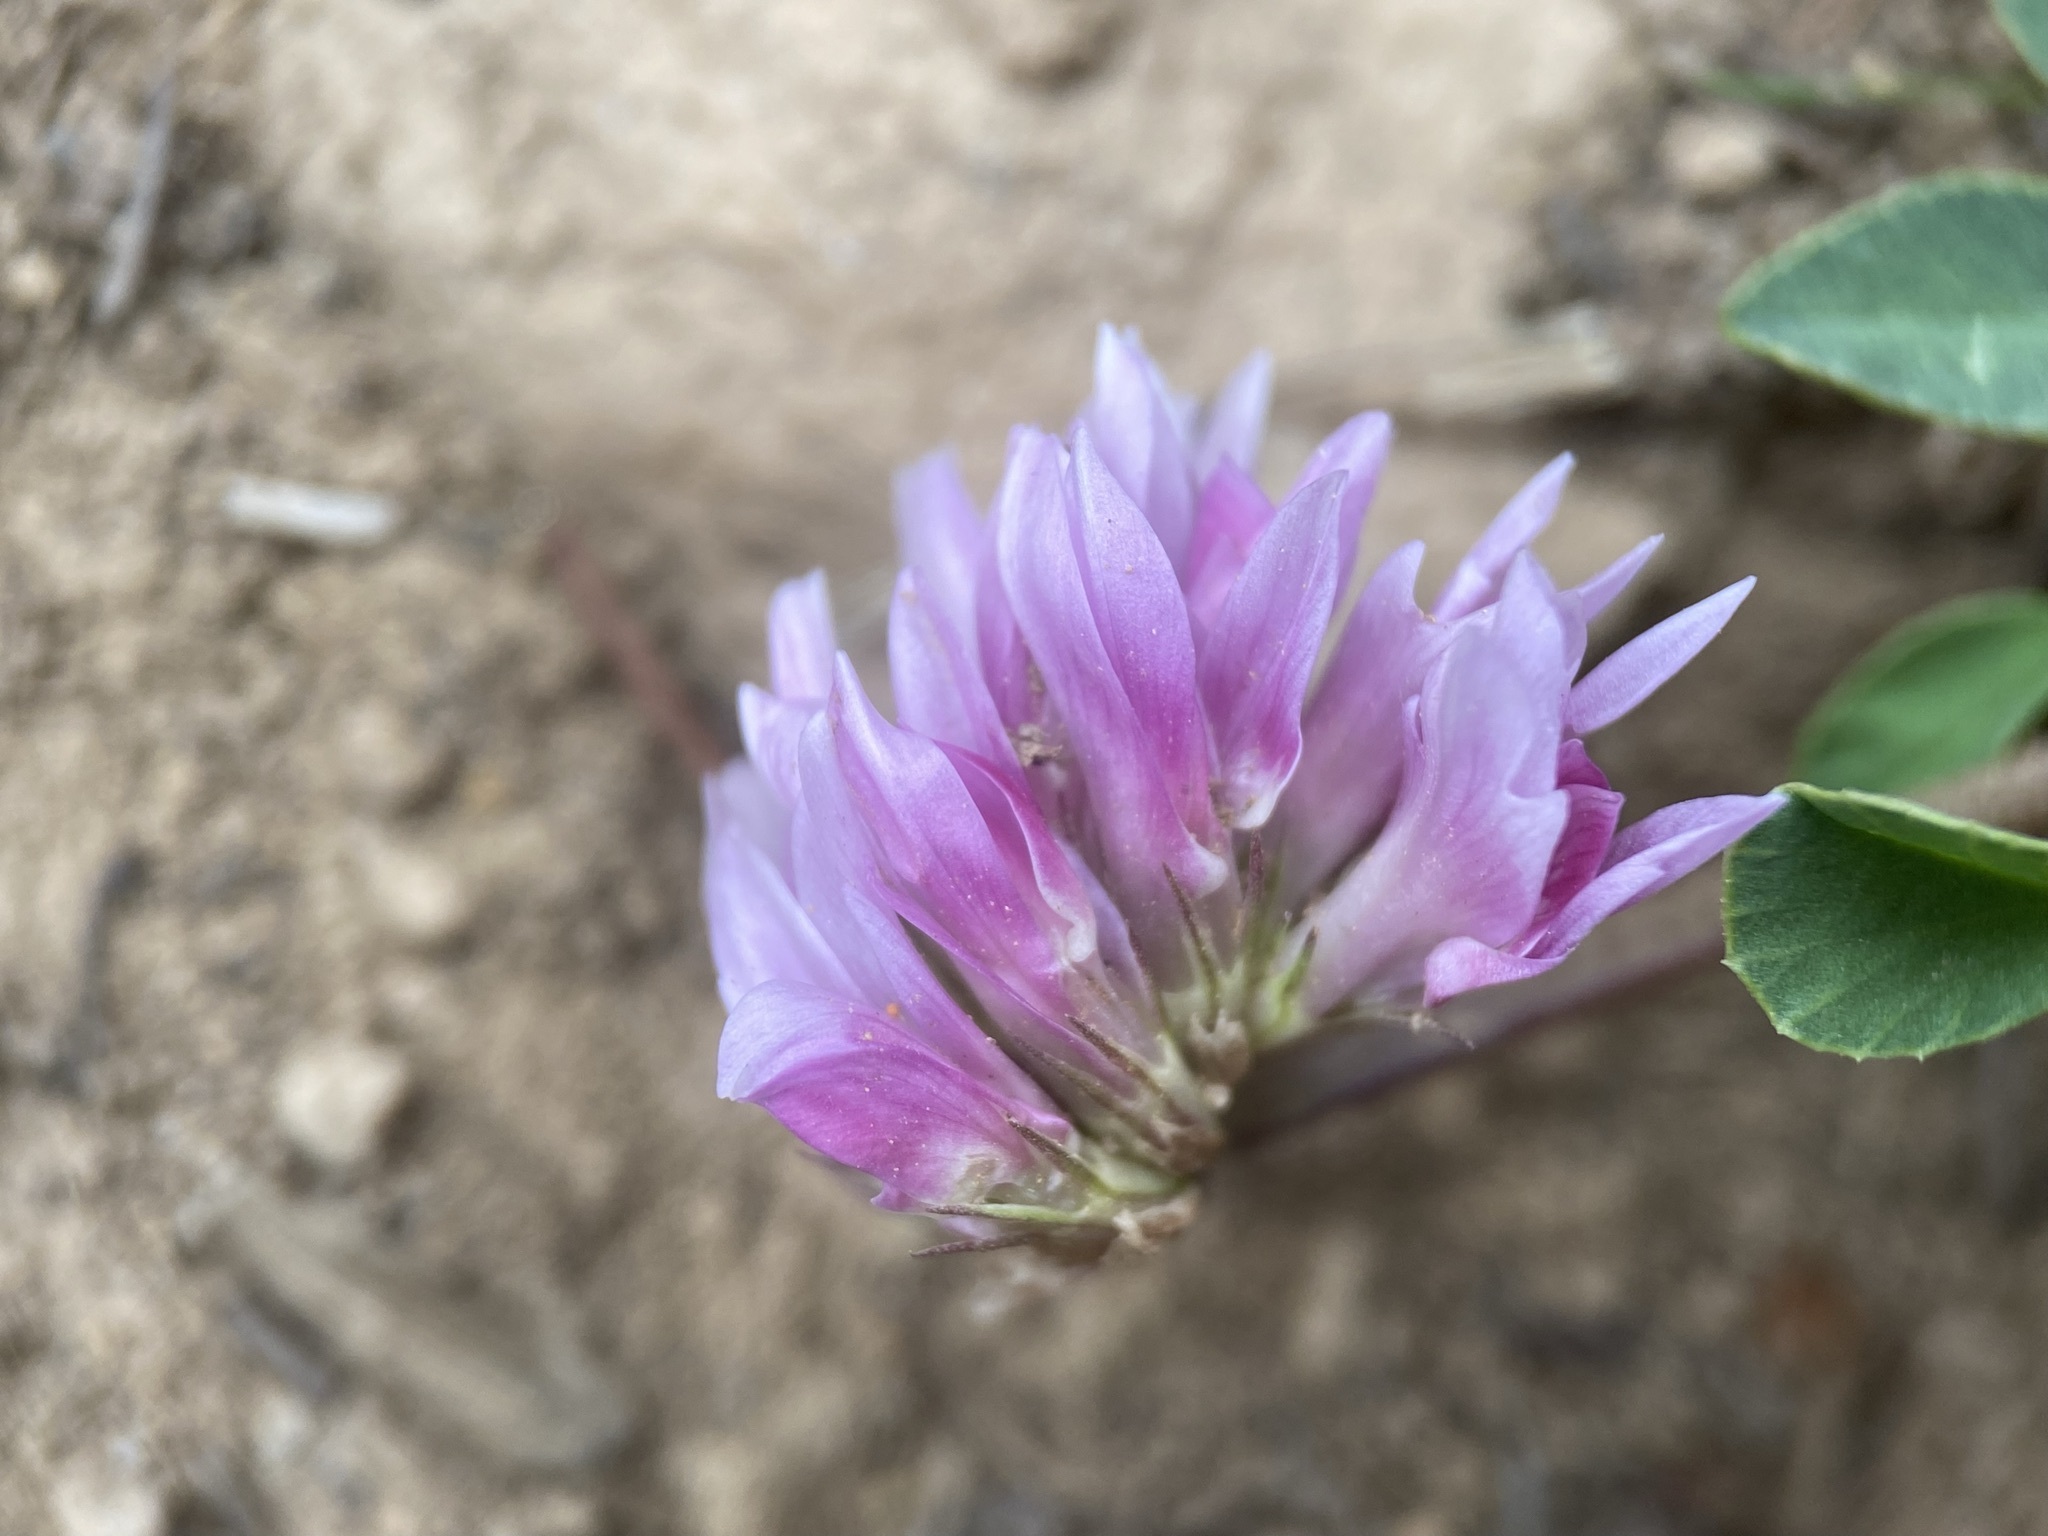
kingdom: Plantae
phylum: Tracheophyta
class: Magnoliopsida
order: Fabales
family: Fabaceae
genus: Trifolium
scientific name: Trifolium parryi
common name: Parry's clover
